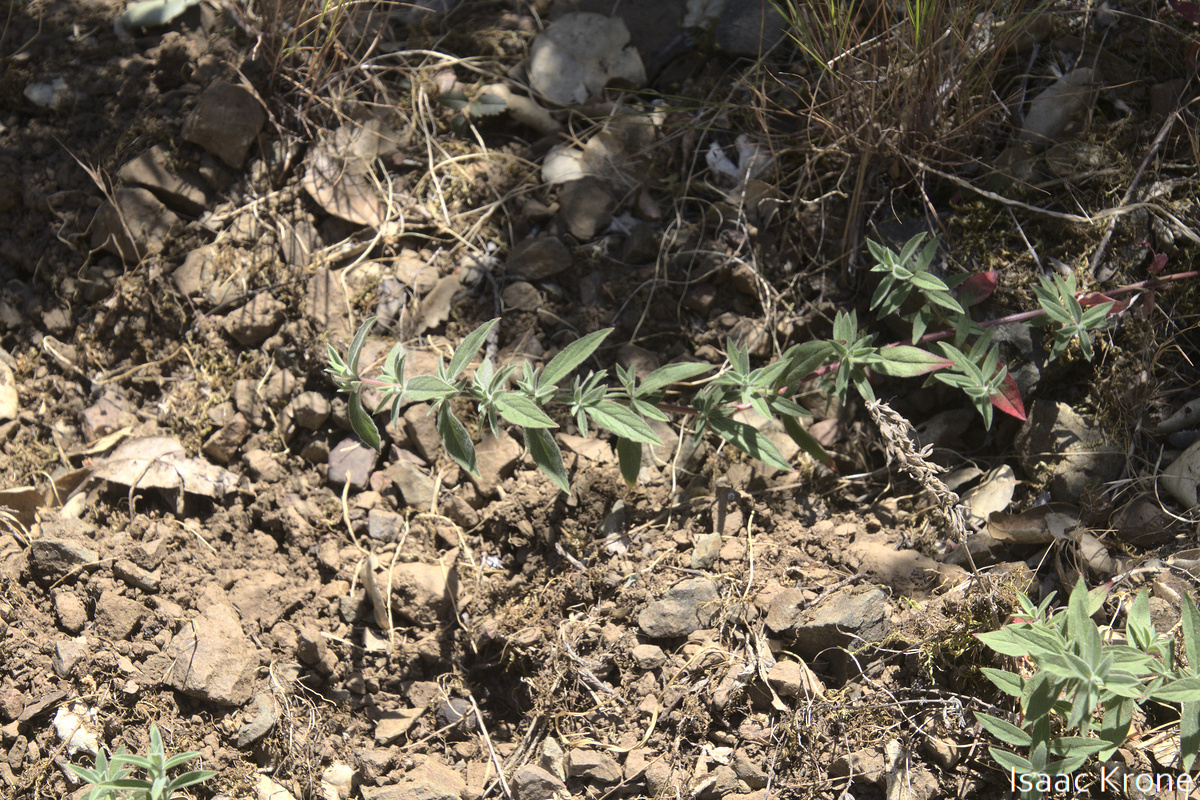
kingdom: Plantae
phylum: Tracheophyta
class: Magnoliopsida
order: Myrtales
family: Onagraceae
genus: Epilobium
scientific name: Epilobium canum
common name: California-fuchsia
